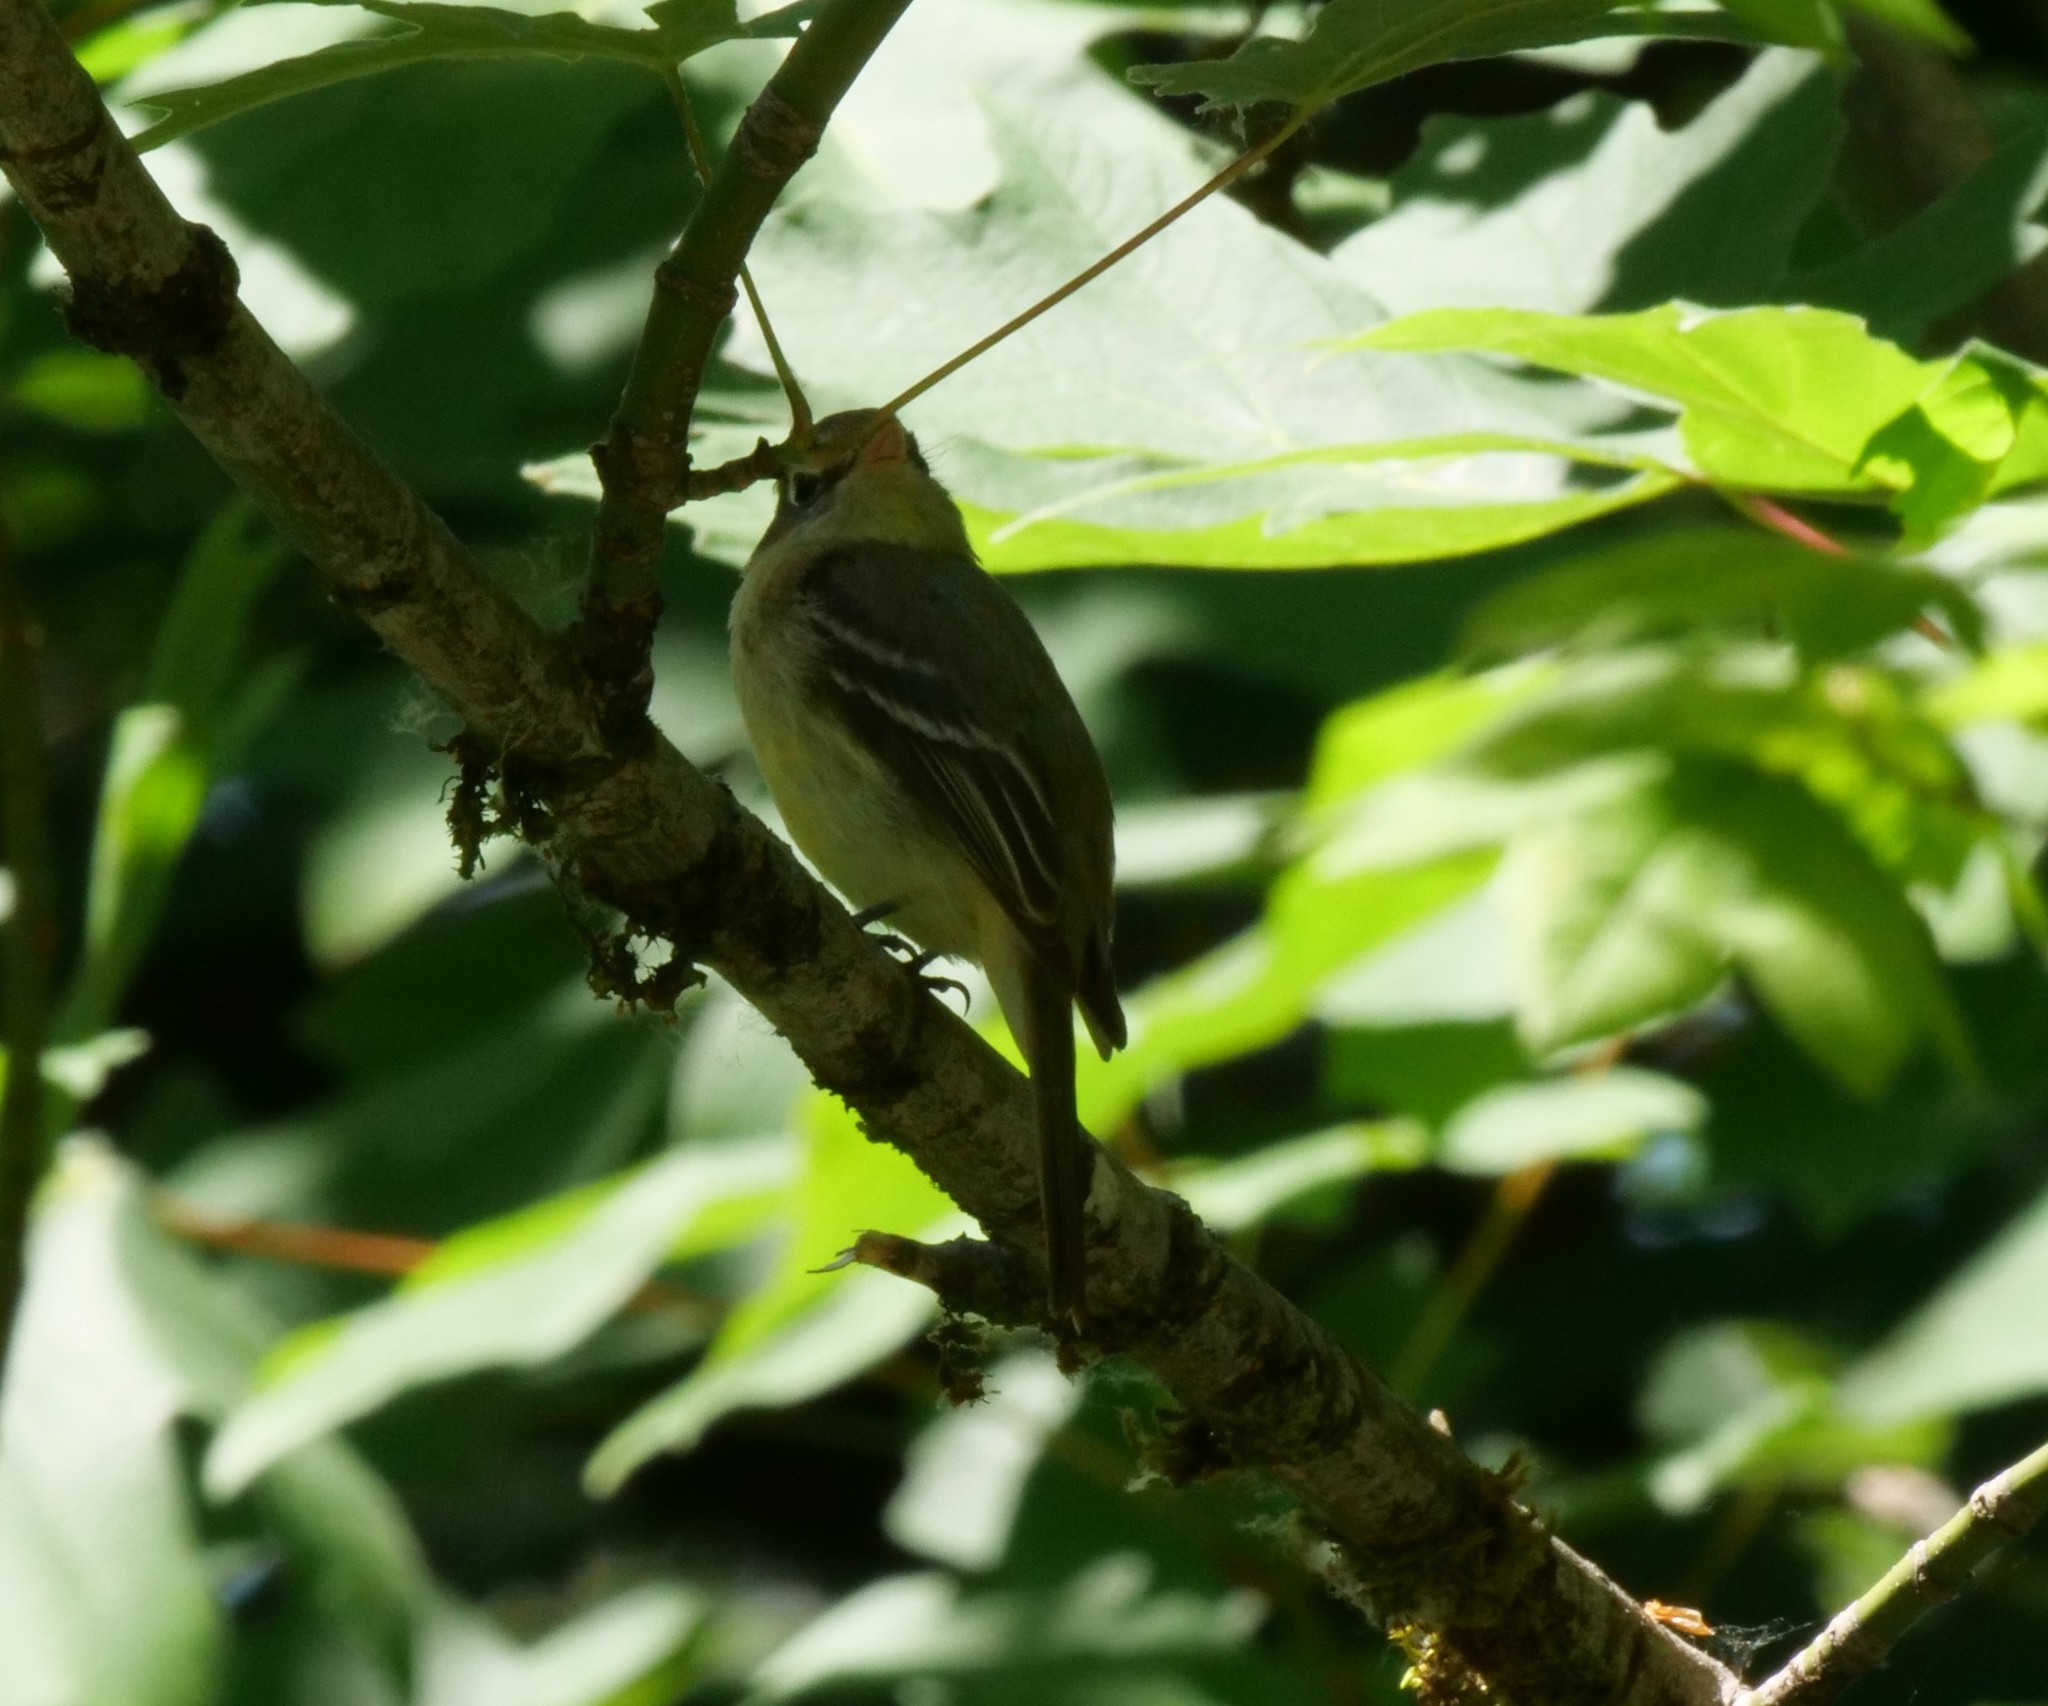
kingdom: Animalia
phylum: Chordata
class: Aves
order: Passeriformes
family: Tyrannidae
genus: Empidonax
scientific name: Empidonax difficilis
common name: Pacific-slope flycatcher
